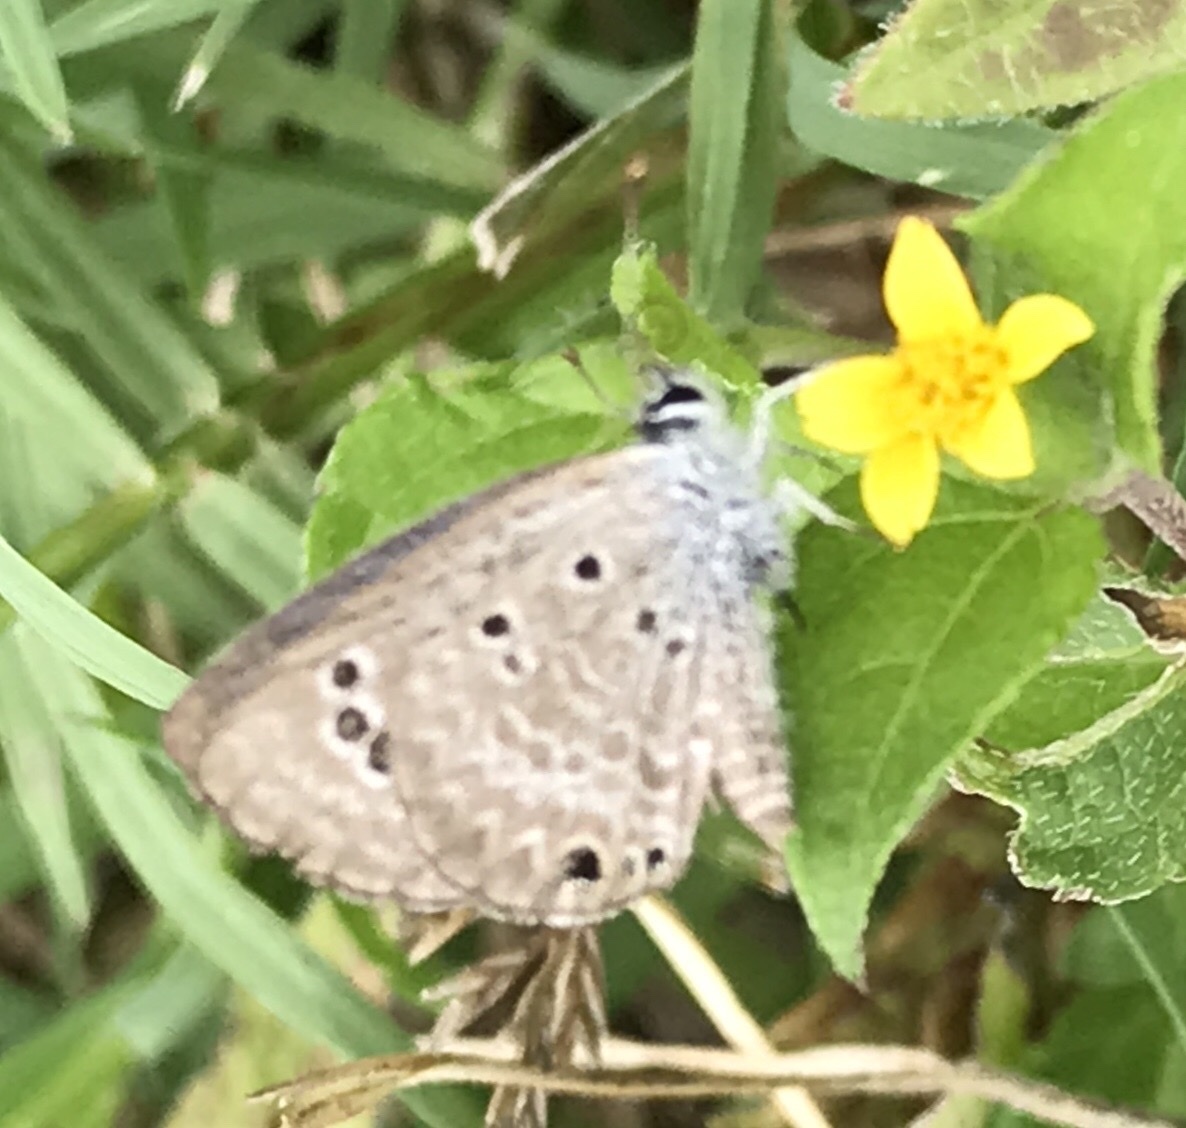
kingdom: Animalia
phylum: Arthropoda
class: Insecta
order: Lepidoptera
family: Lycaenidae
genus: Echinargus
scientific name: Echinargus isola
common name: Reakirt's blue
